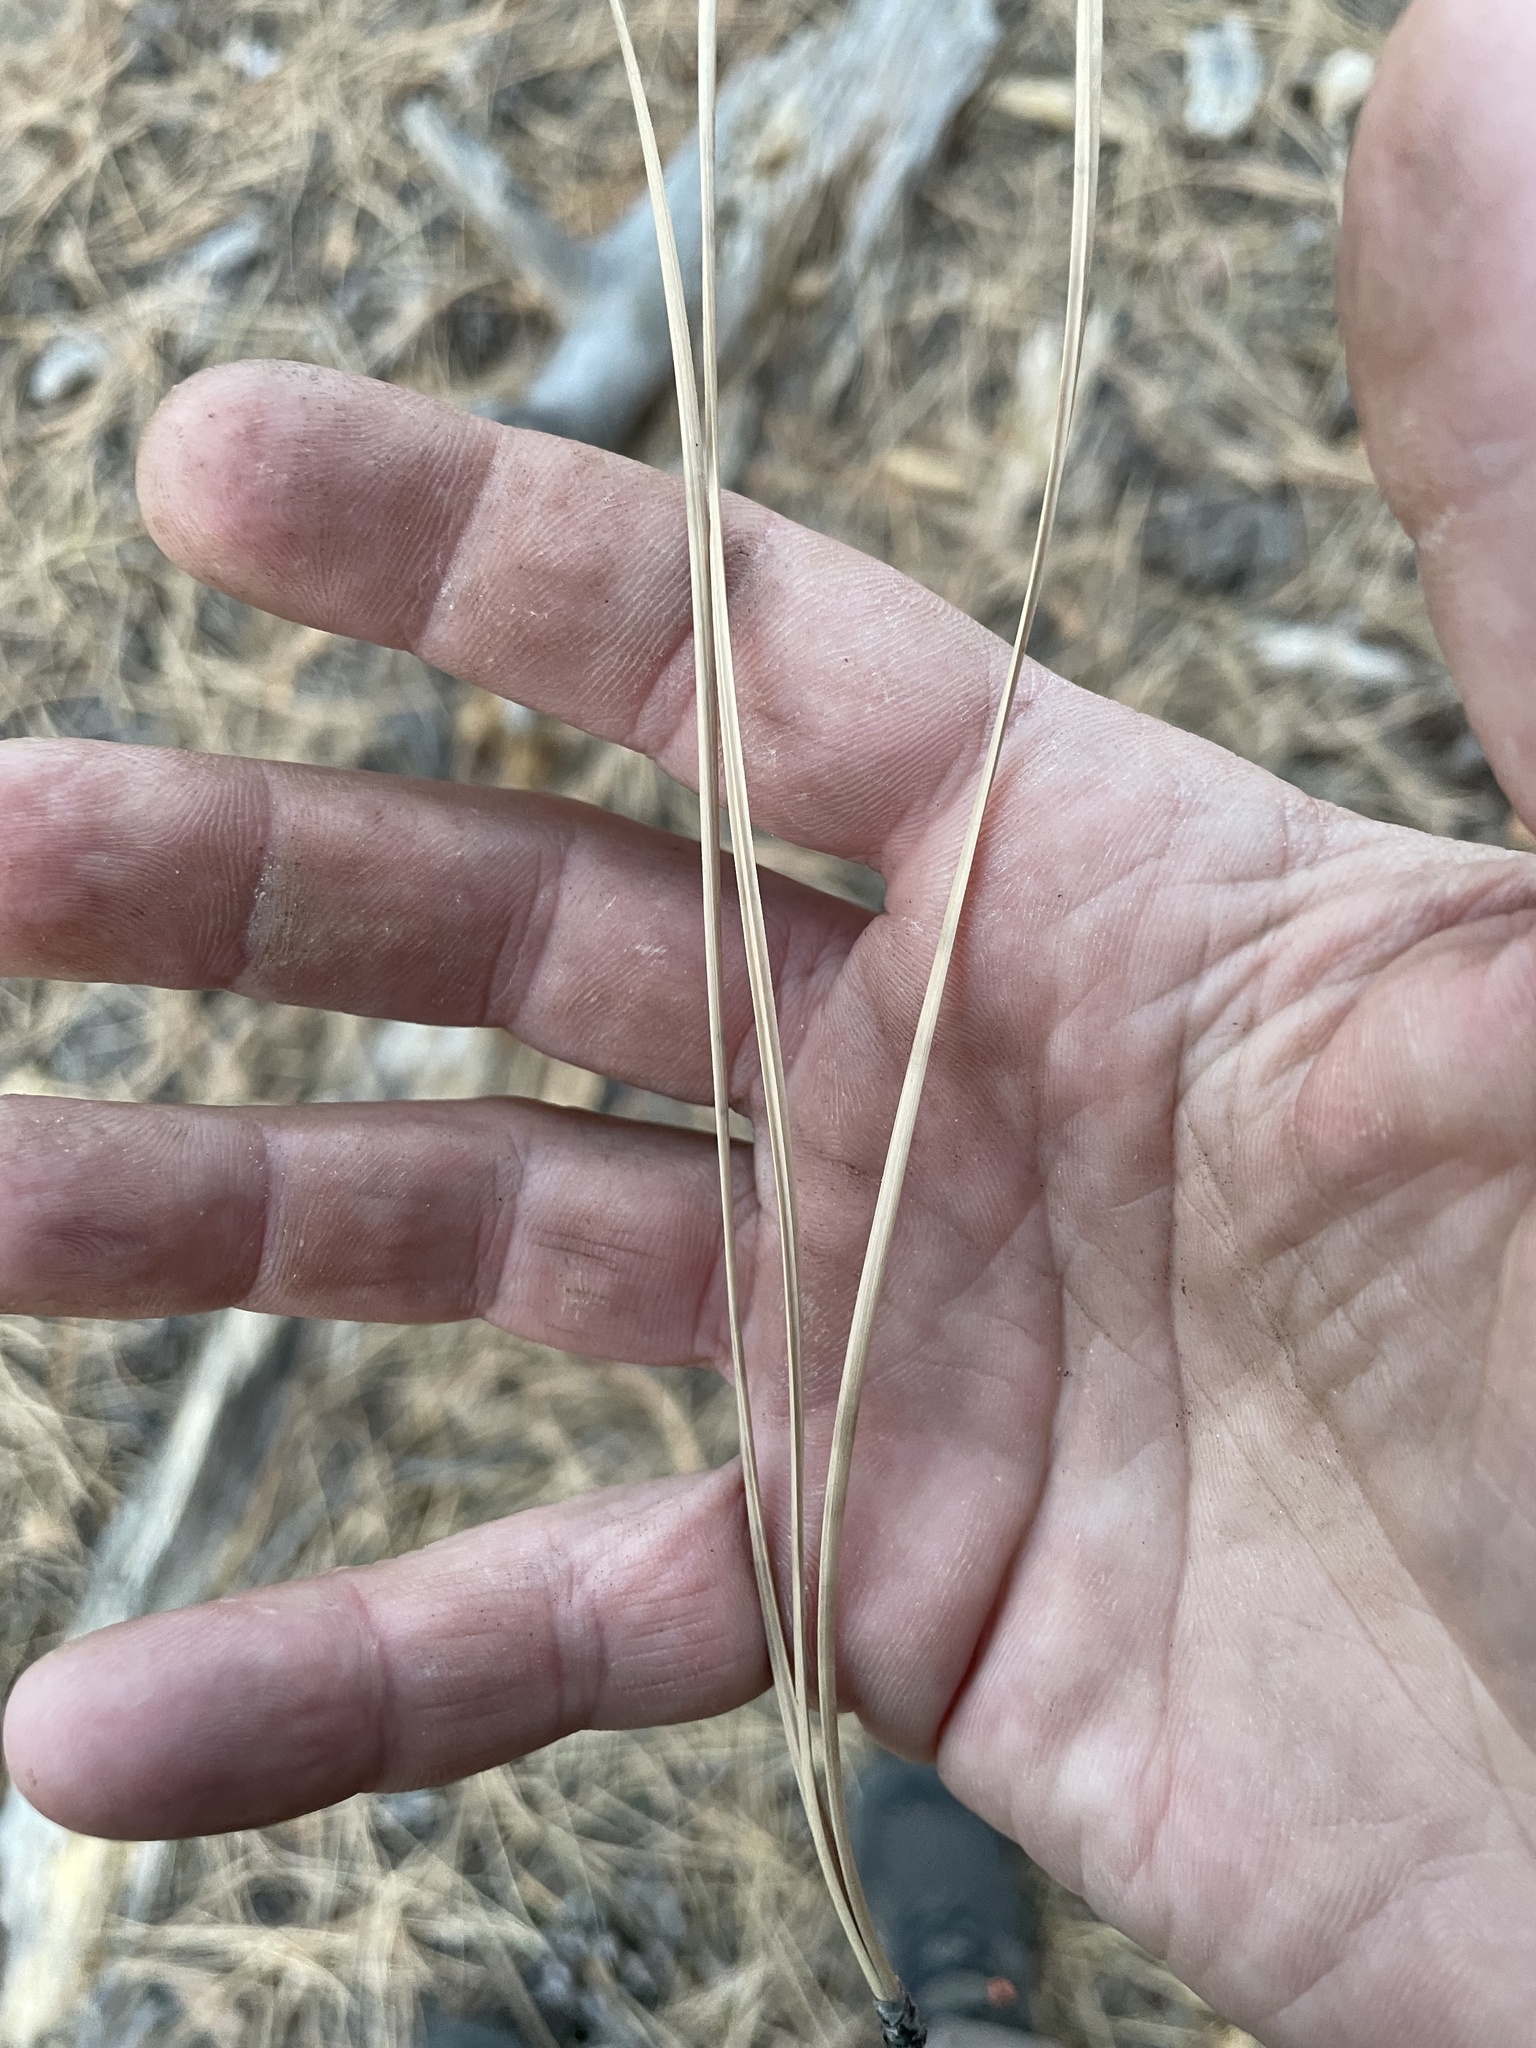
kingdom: Plantae
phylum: Tracheophyta
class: Pinopsida
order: Pinales
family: Pinaceae
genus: Pinus
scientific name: Pinus ponderosa
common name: Western yellow-pine
